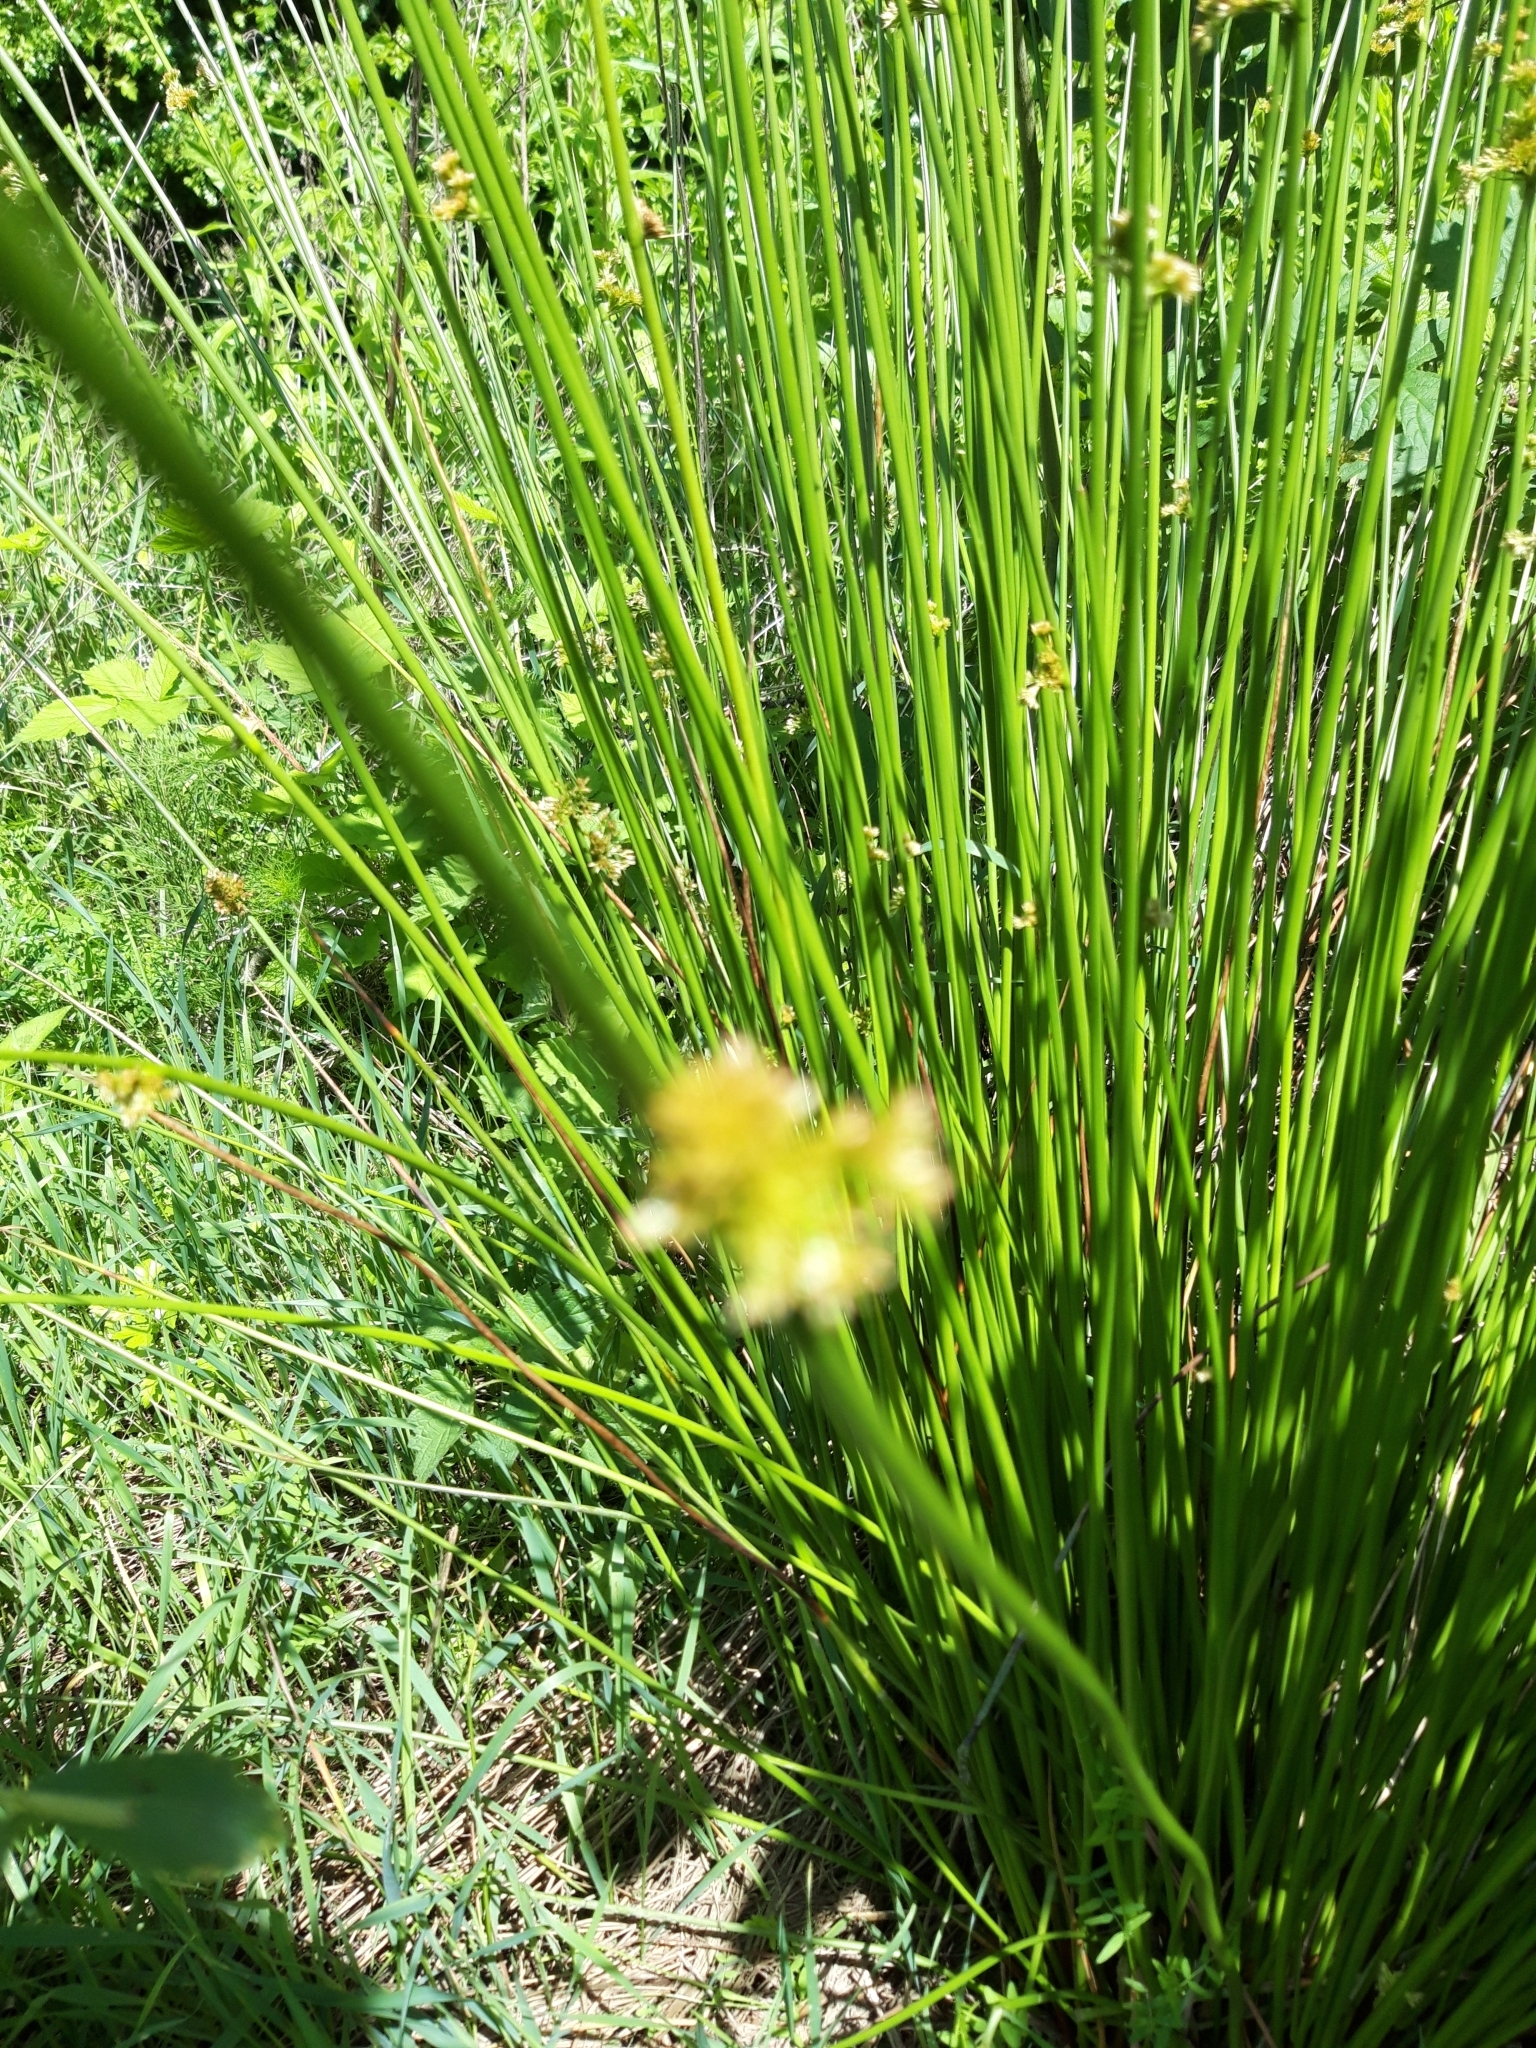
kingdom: Plantae
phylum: Tracheophyta
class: Liliopsida
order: Poales
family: Juncaceae
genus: Juncus
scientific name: Juncus effusus
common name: Soft rush
